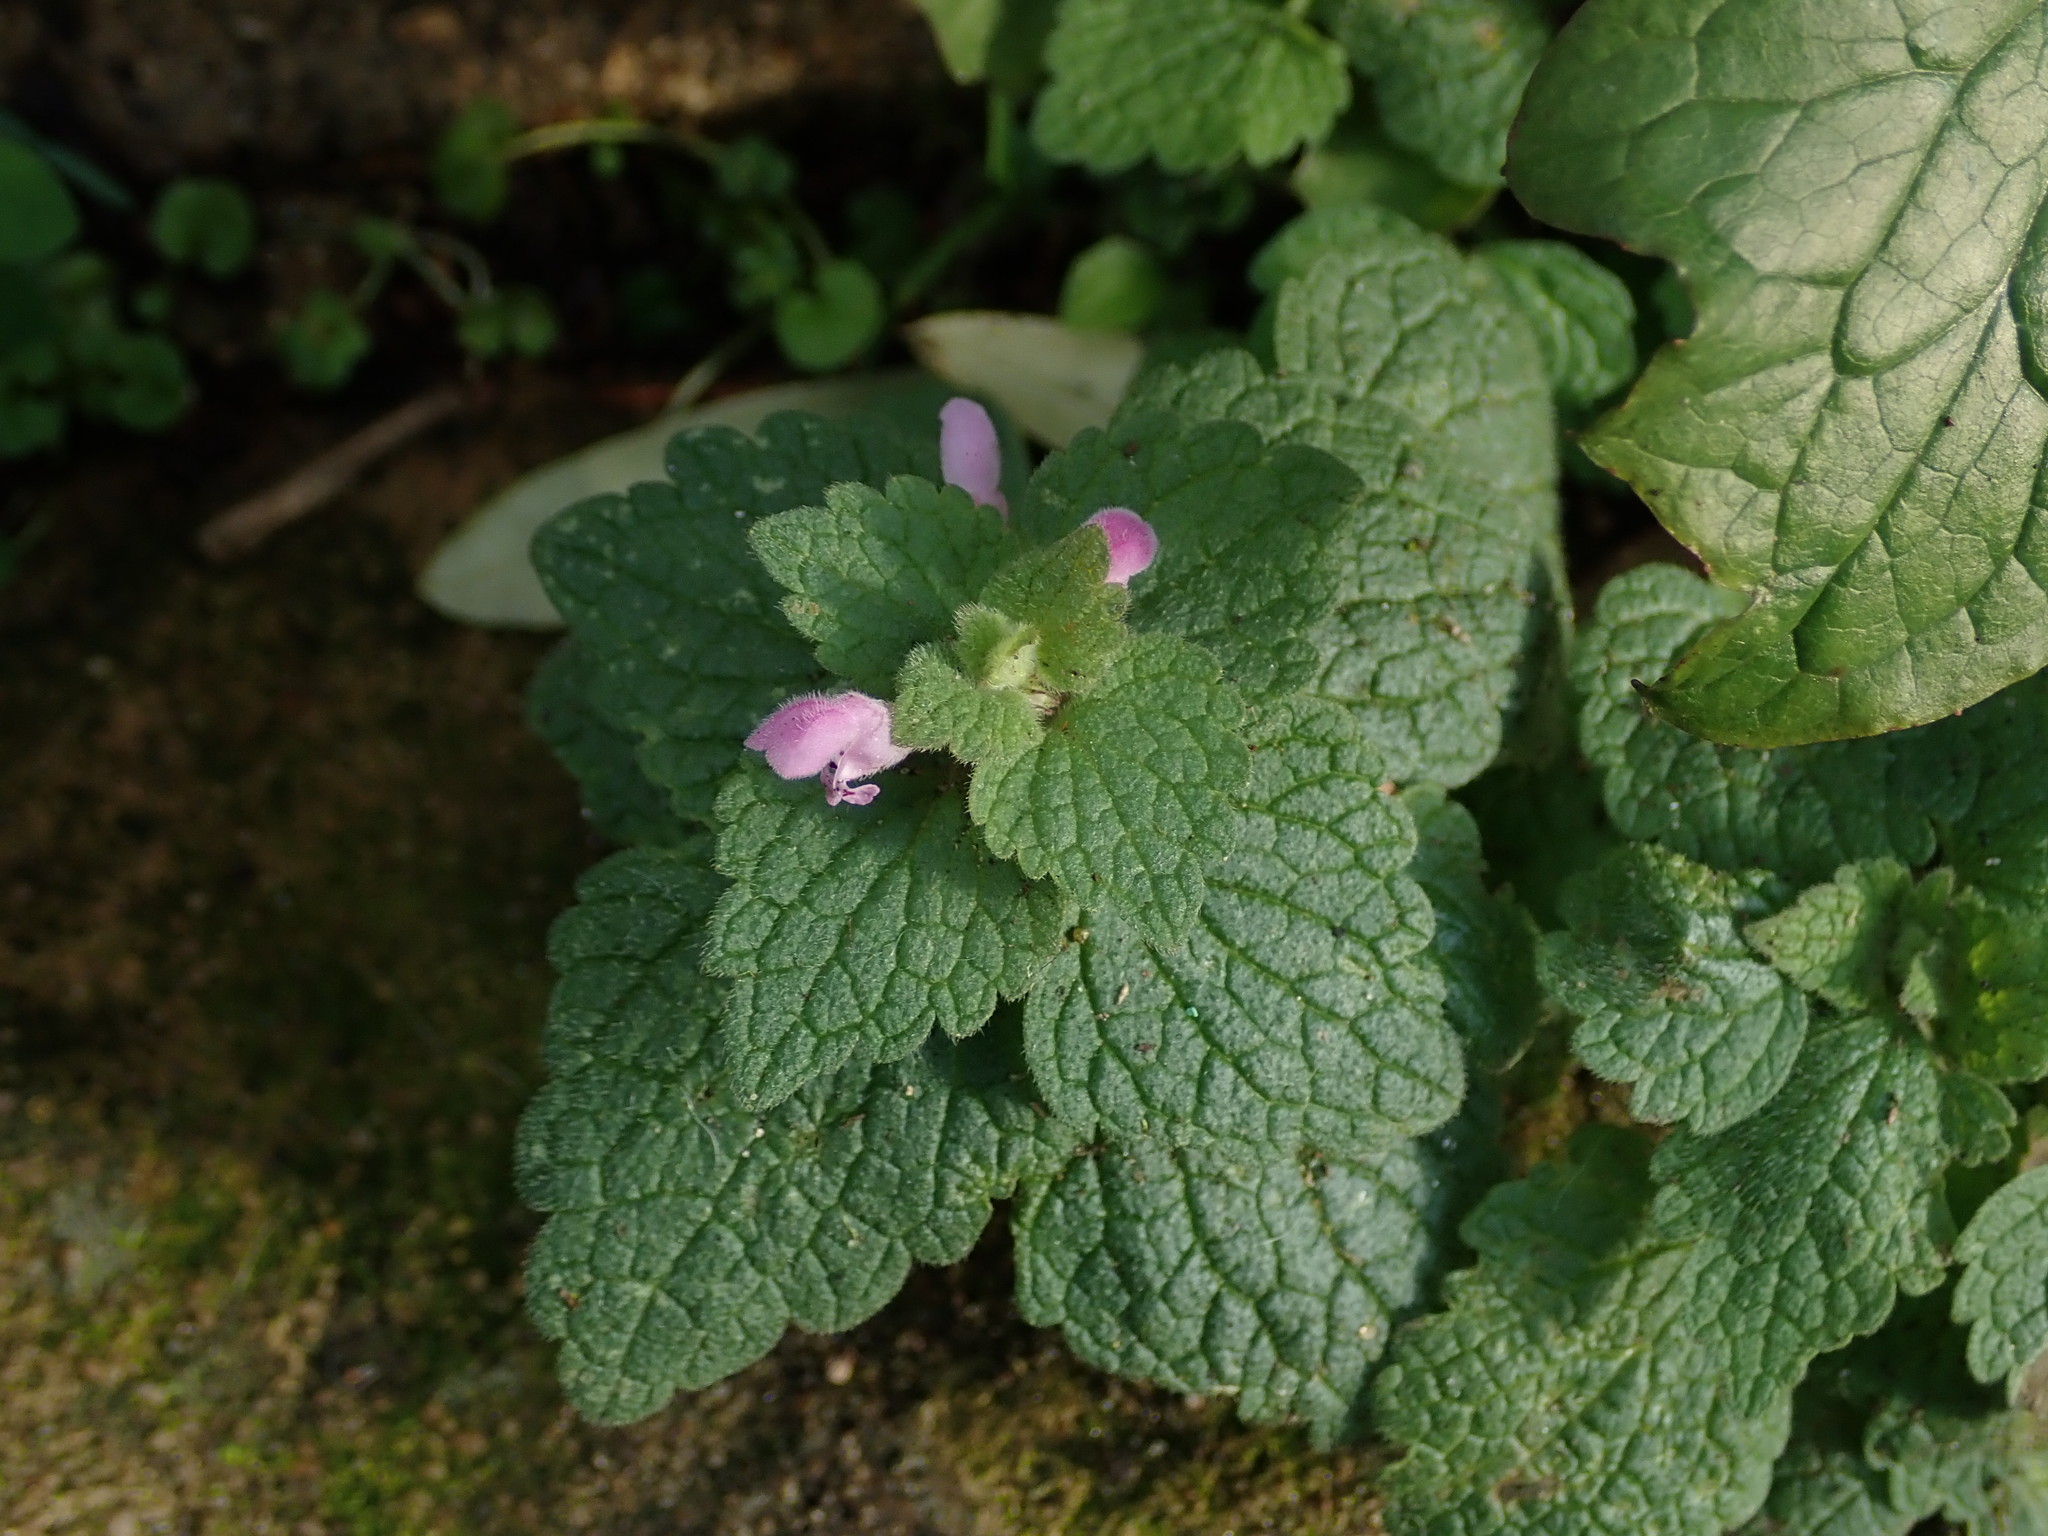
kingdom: Plantae
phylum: Tracheophyta
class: Magnoliopsida
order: Lamiales
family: Lamiaceae
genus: Lamium
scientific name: Lamium purpureum
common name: Red dead-nettle
